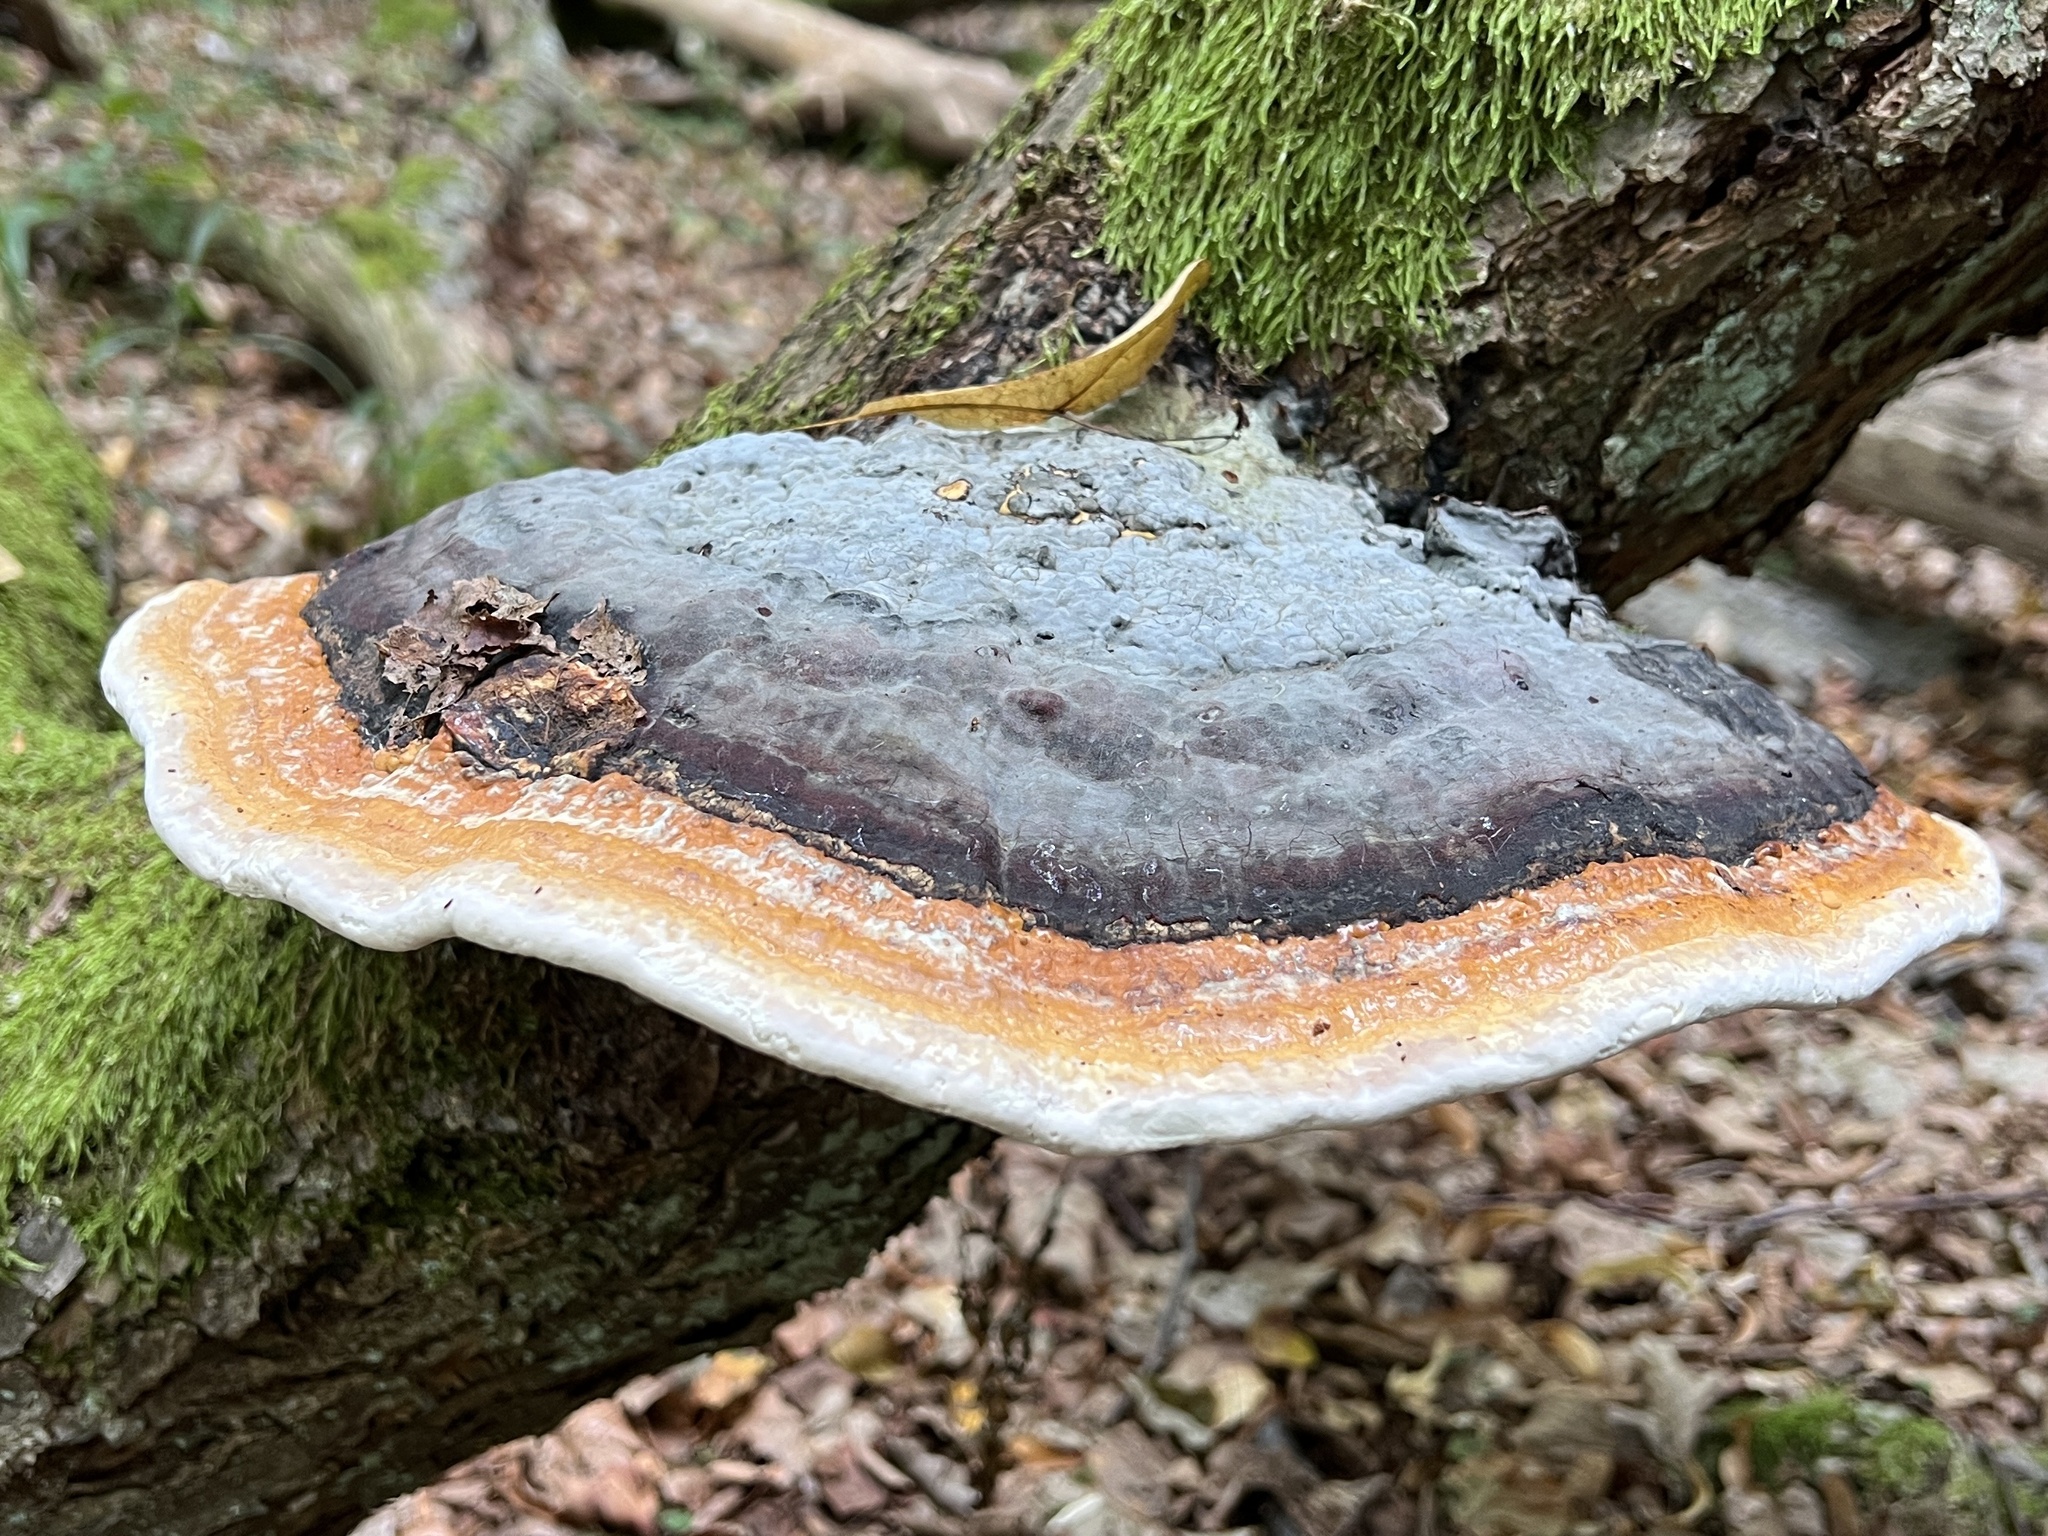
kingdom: Fungi
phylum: Basidiomycota
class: Agaricomycetes
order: Polyporales
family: Fomitopsidaceae
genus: Fomitopsis
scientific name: Fomitopsis pinicola
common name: Red-belted bracket
